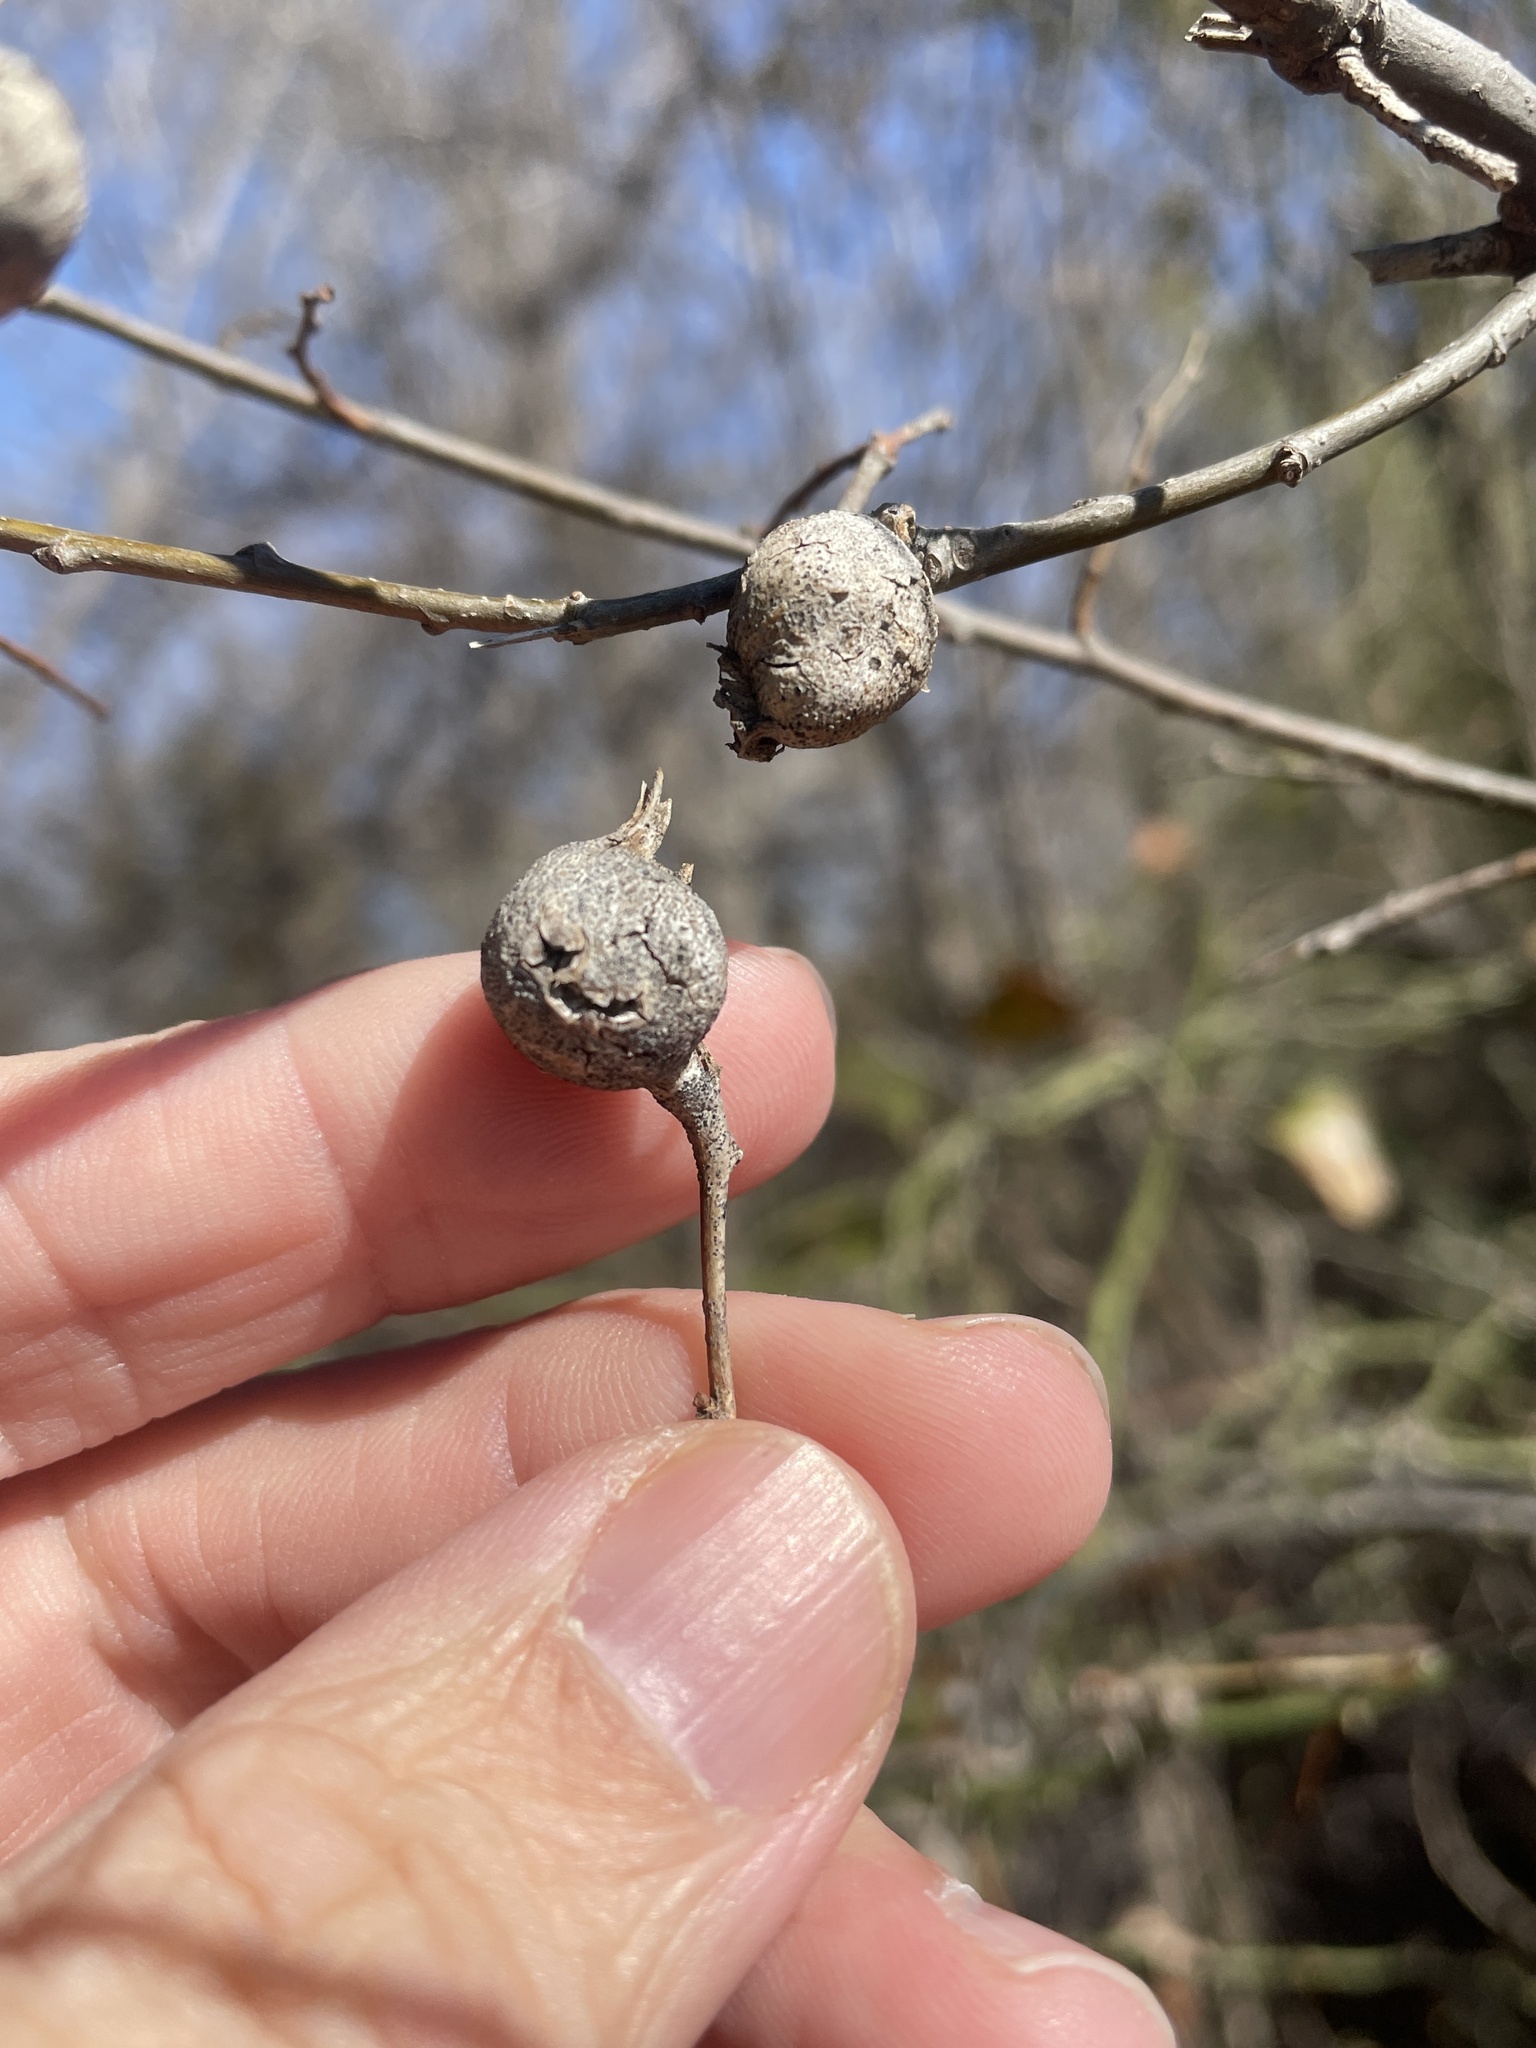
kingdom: Animalia
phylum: Arthropoda
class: Insecta
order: Hemiptera
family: Aphalaridae
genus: Pachypsylla
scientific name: Pachypsylla venusta
